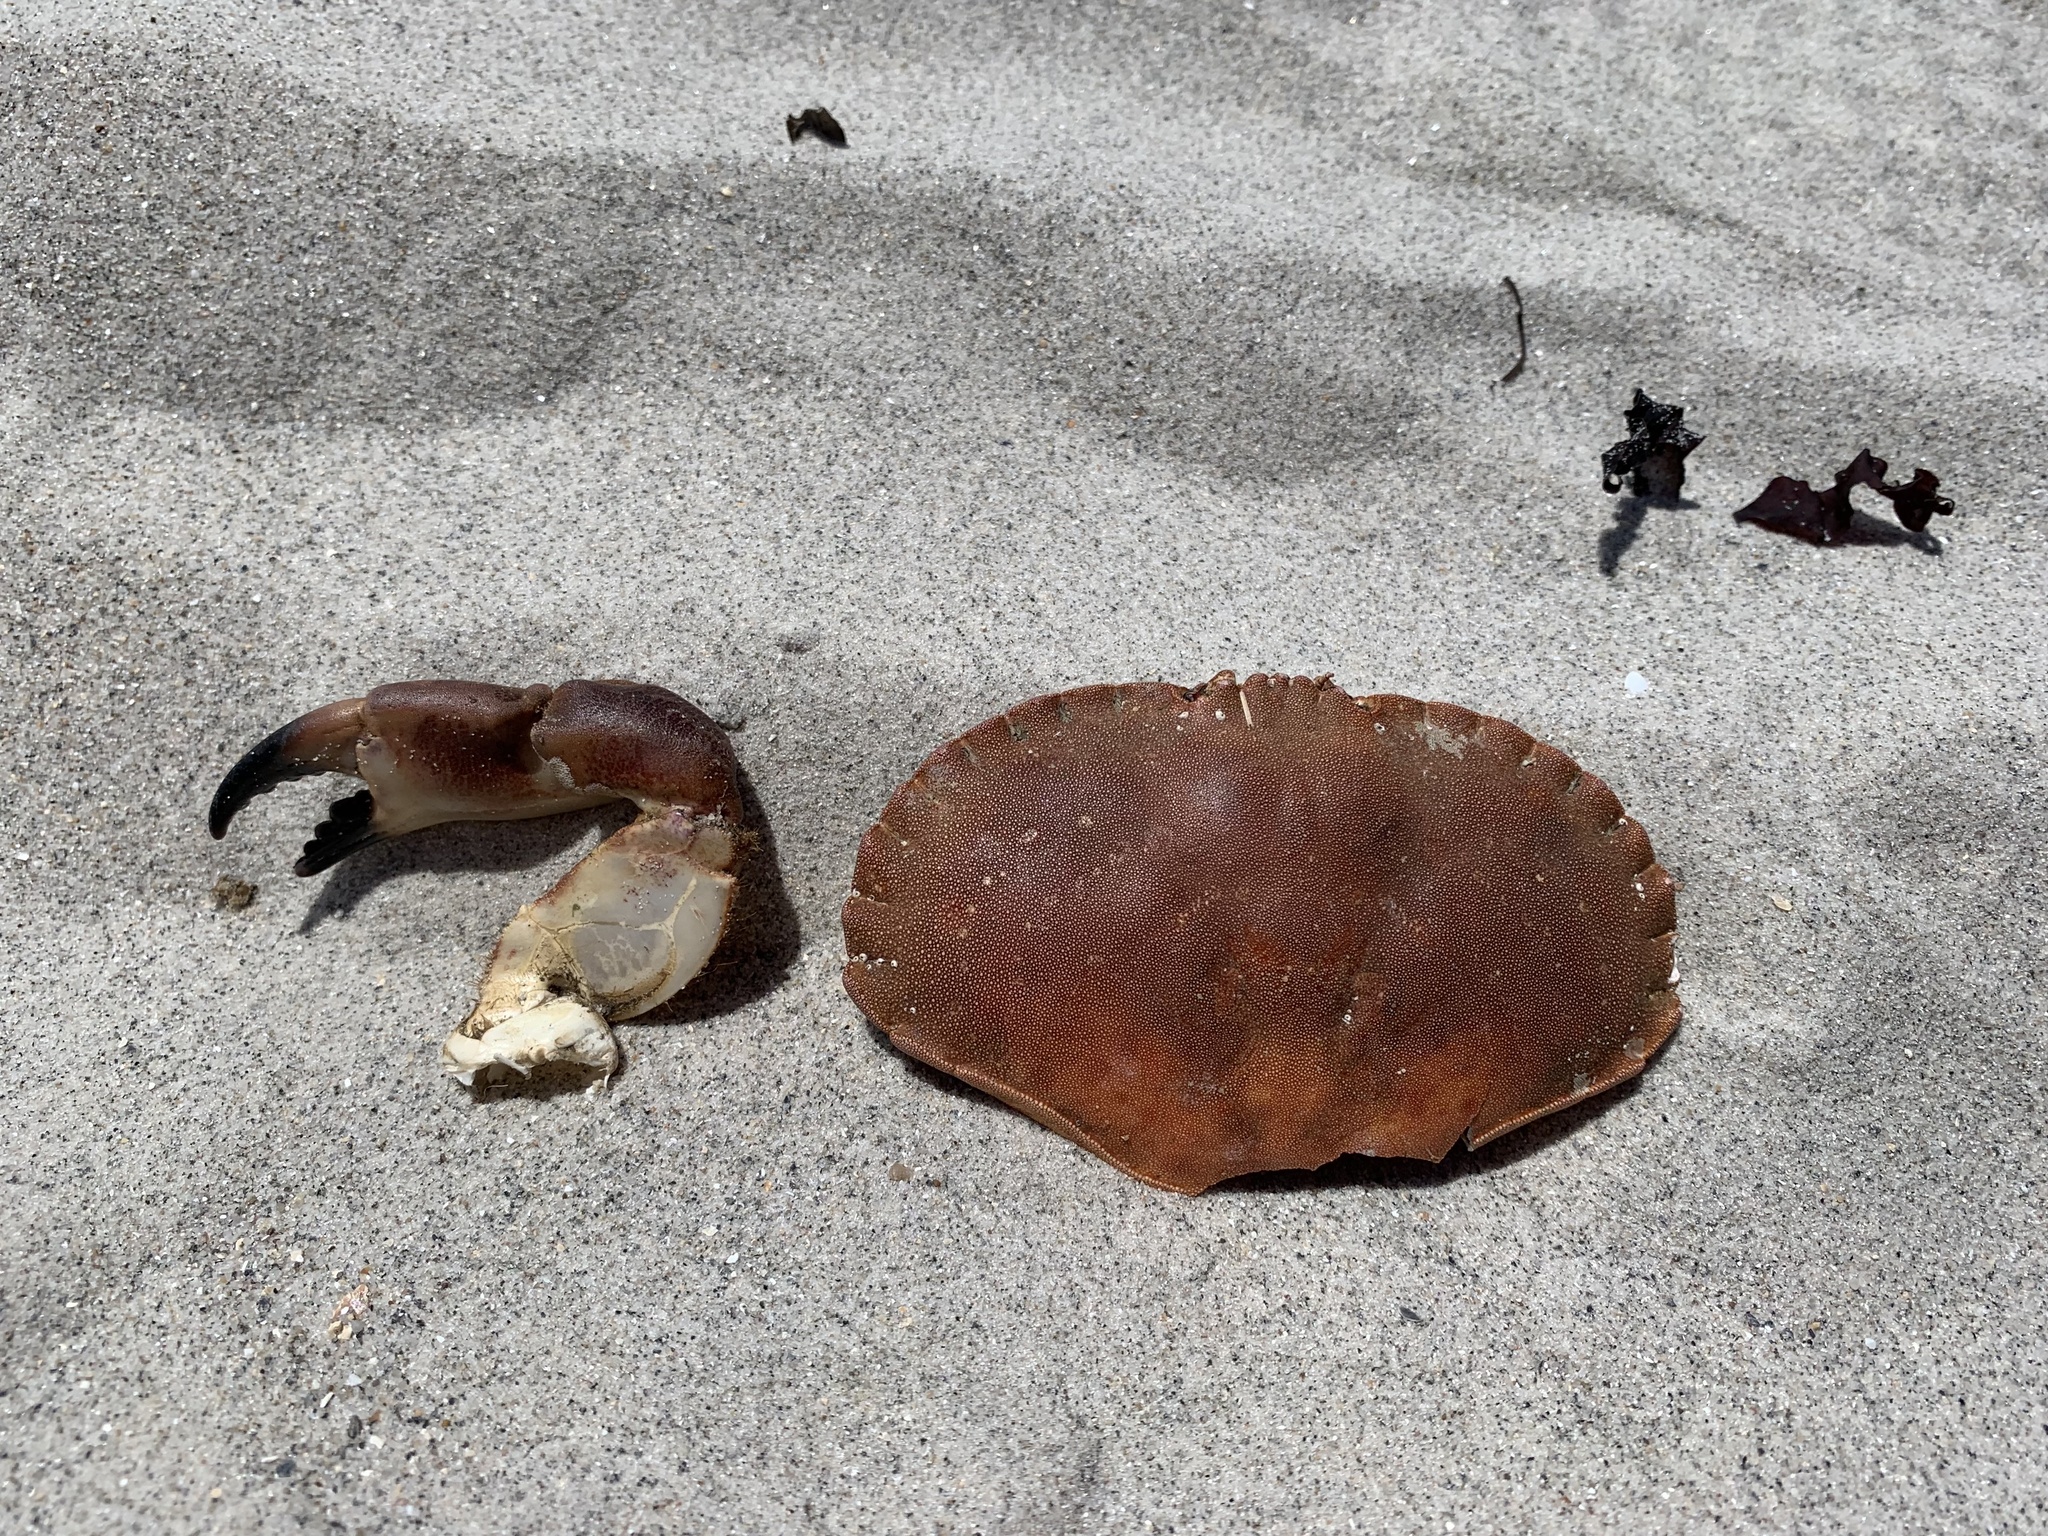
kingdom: Animalia
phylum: Arthropoda
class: Malacostraca
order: Decapoda
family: Cancridae
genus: Cancer
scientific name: Cancer pagurus
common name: Edible crab
